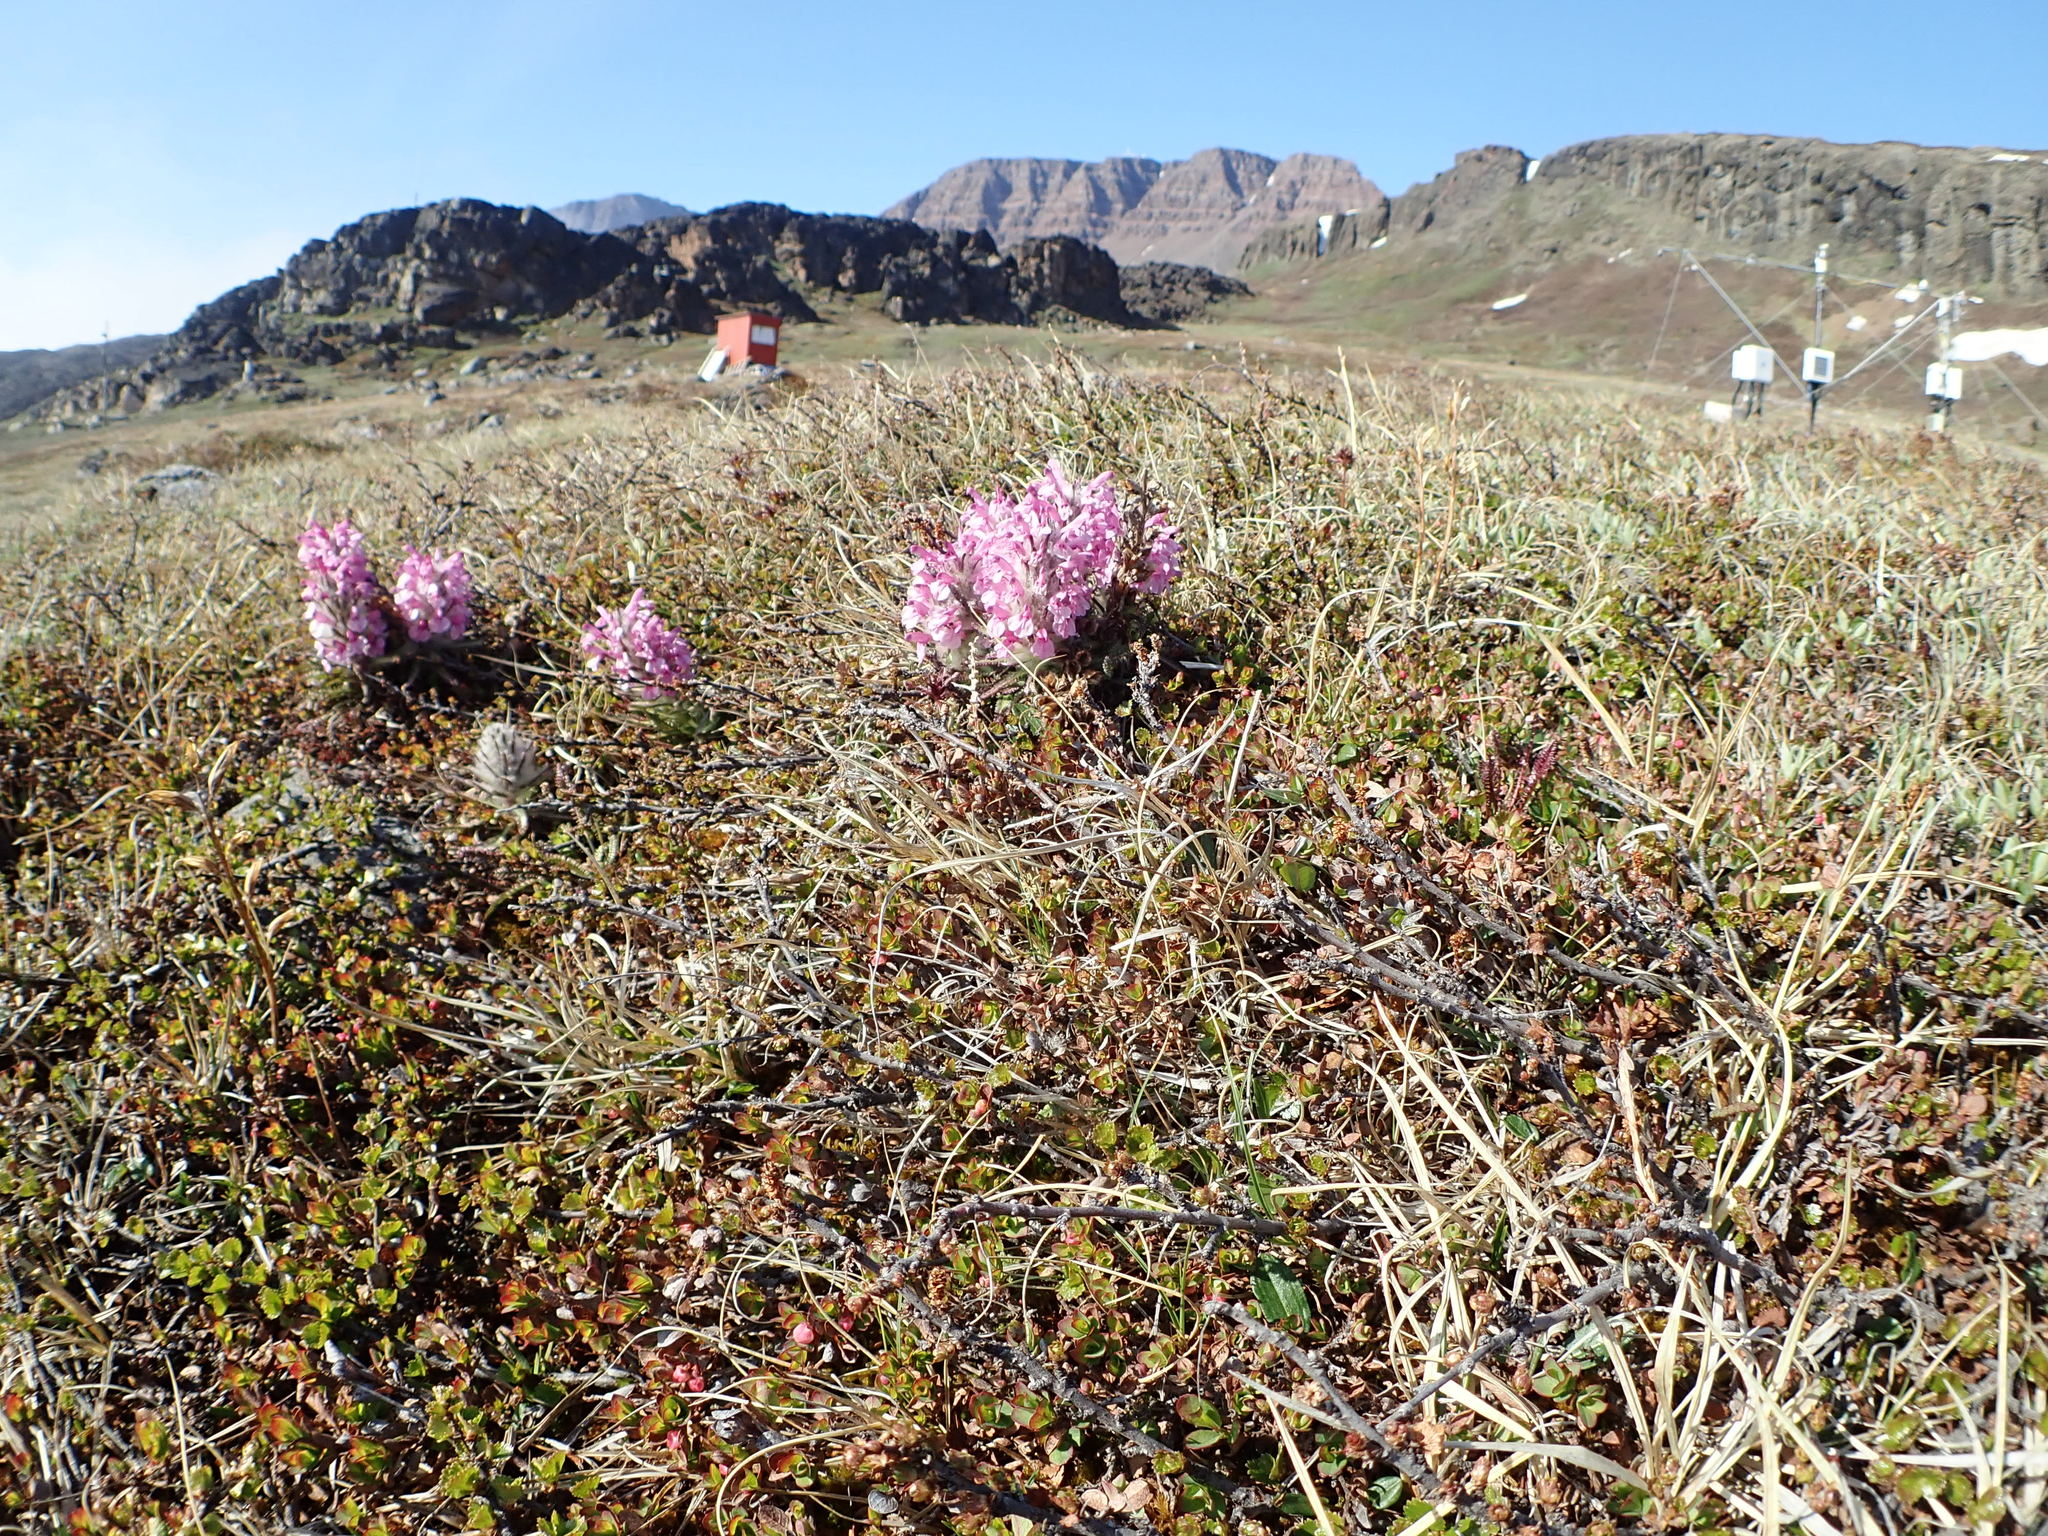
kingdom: Plantae
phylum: Tracheophyta
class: Magnoliopsida
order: Lamiales
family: Orobanchaceae
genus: Pedicularis
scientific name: Pedicularis lanata
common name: Woolly lousewort
